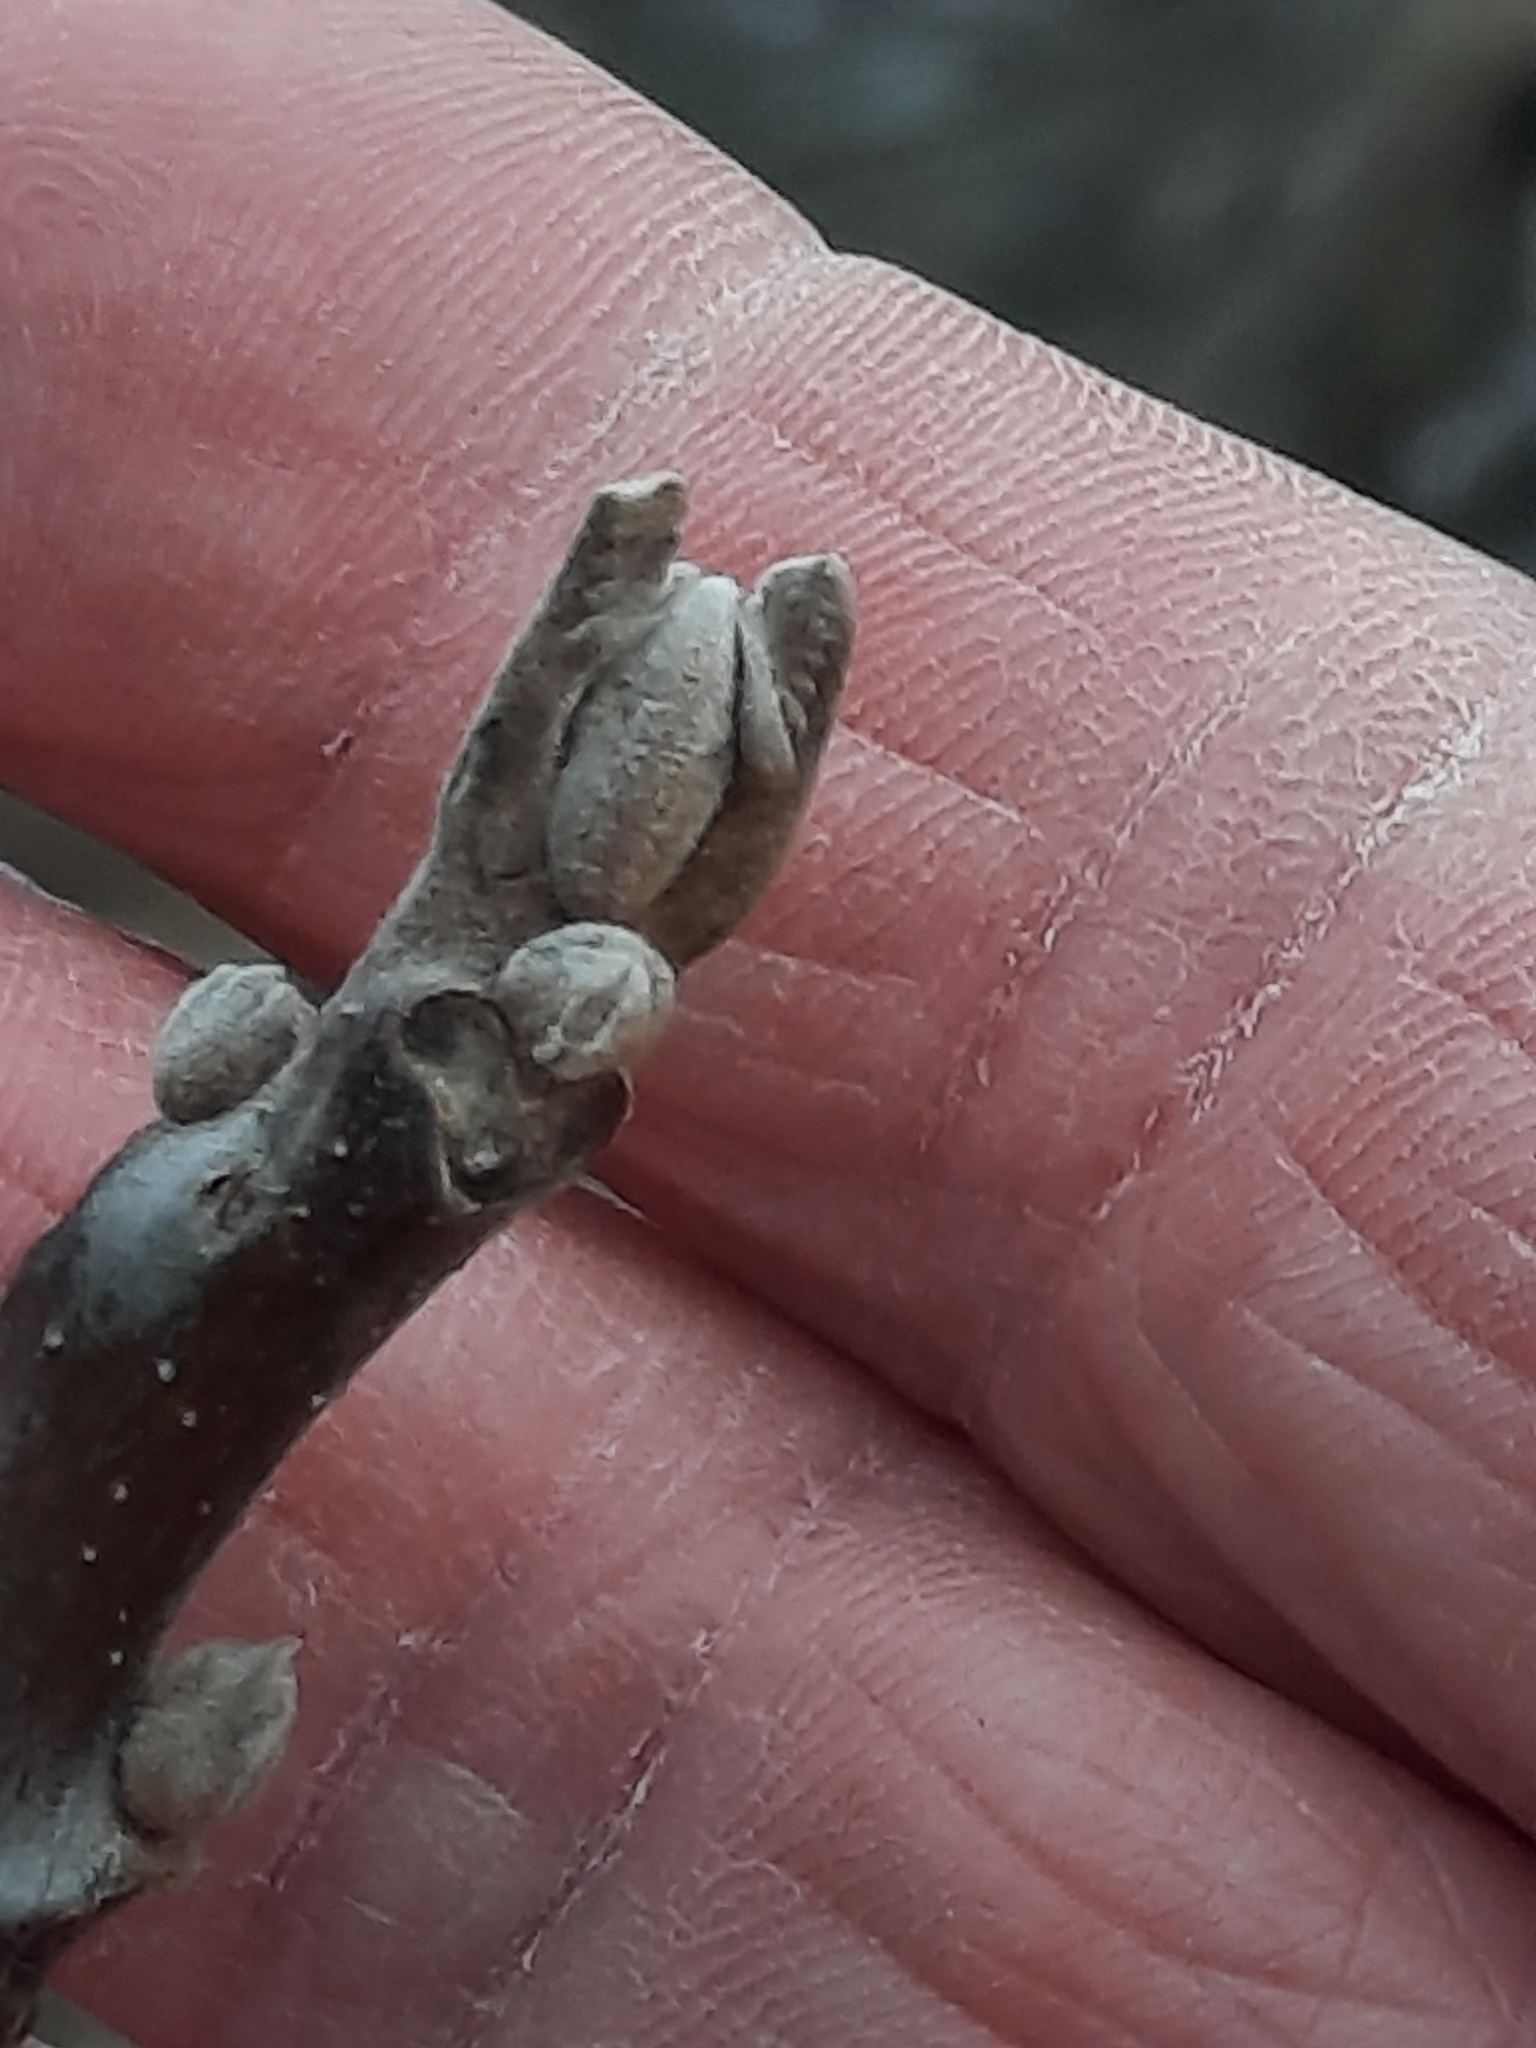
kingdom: Plantae
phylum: Tracheophyta
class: Magnoliopsida
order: Fagales
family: Juglandaceae
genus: Juglans
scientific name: Juglans nigra
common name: Black walnut
